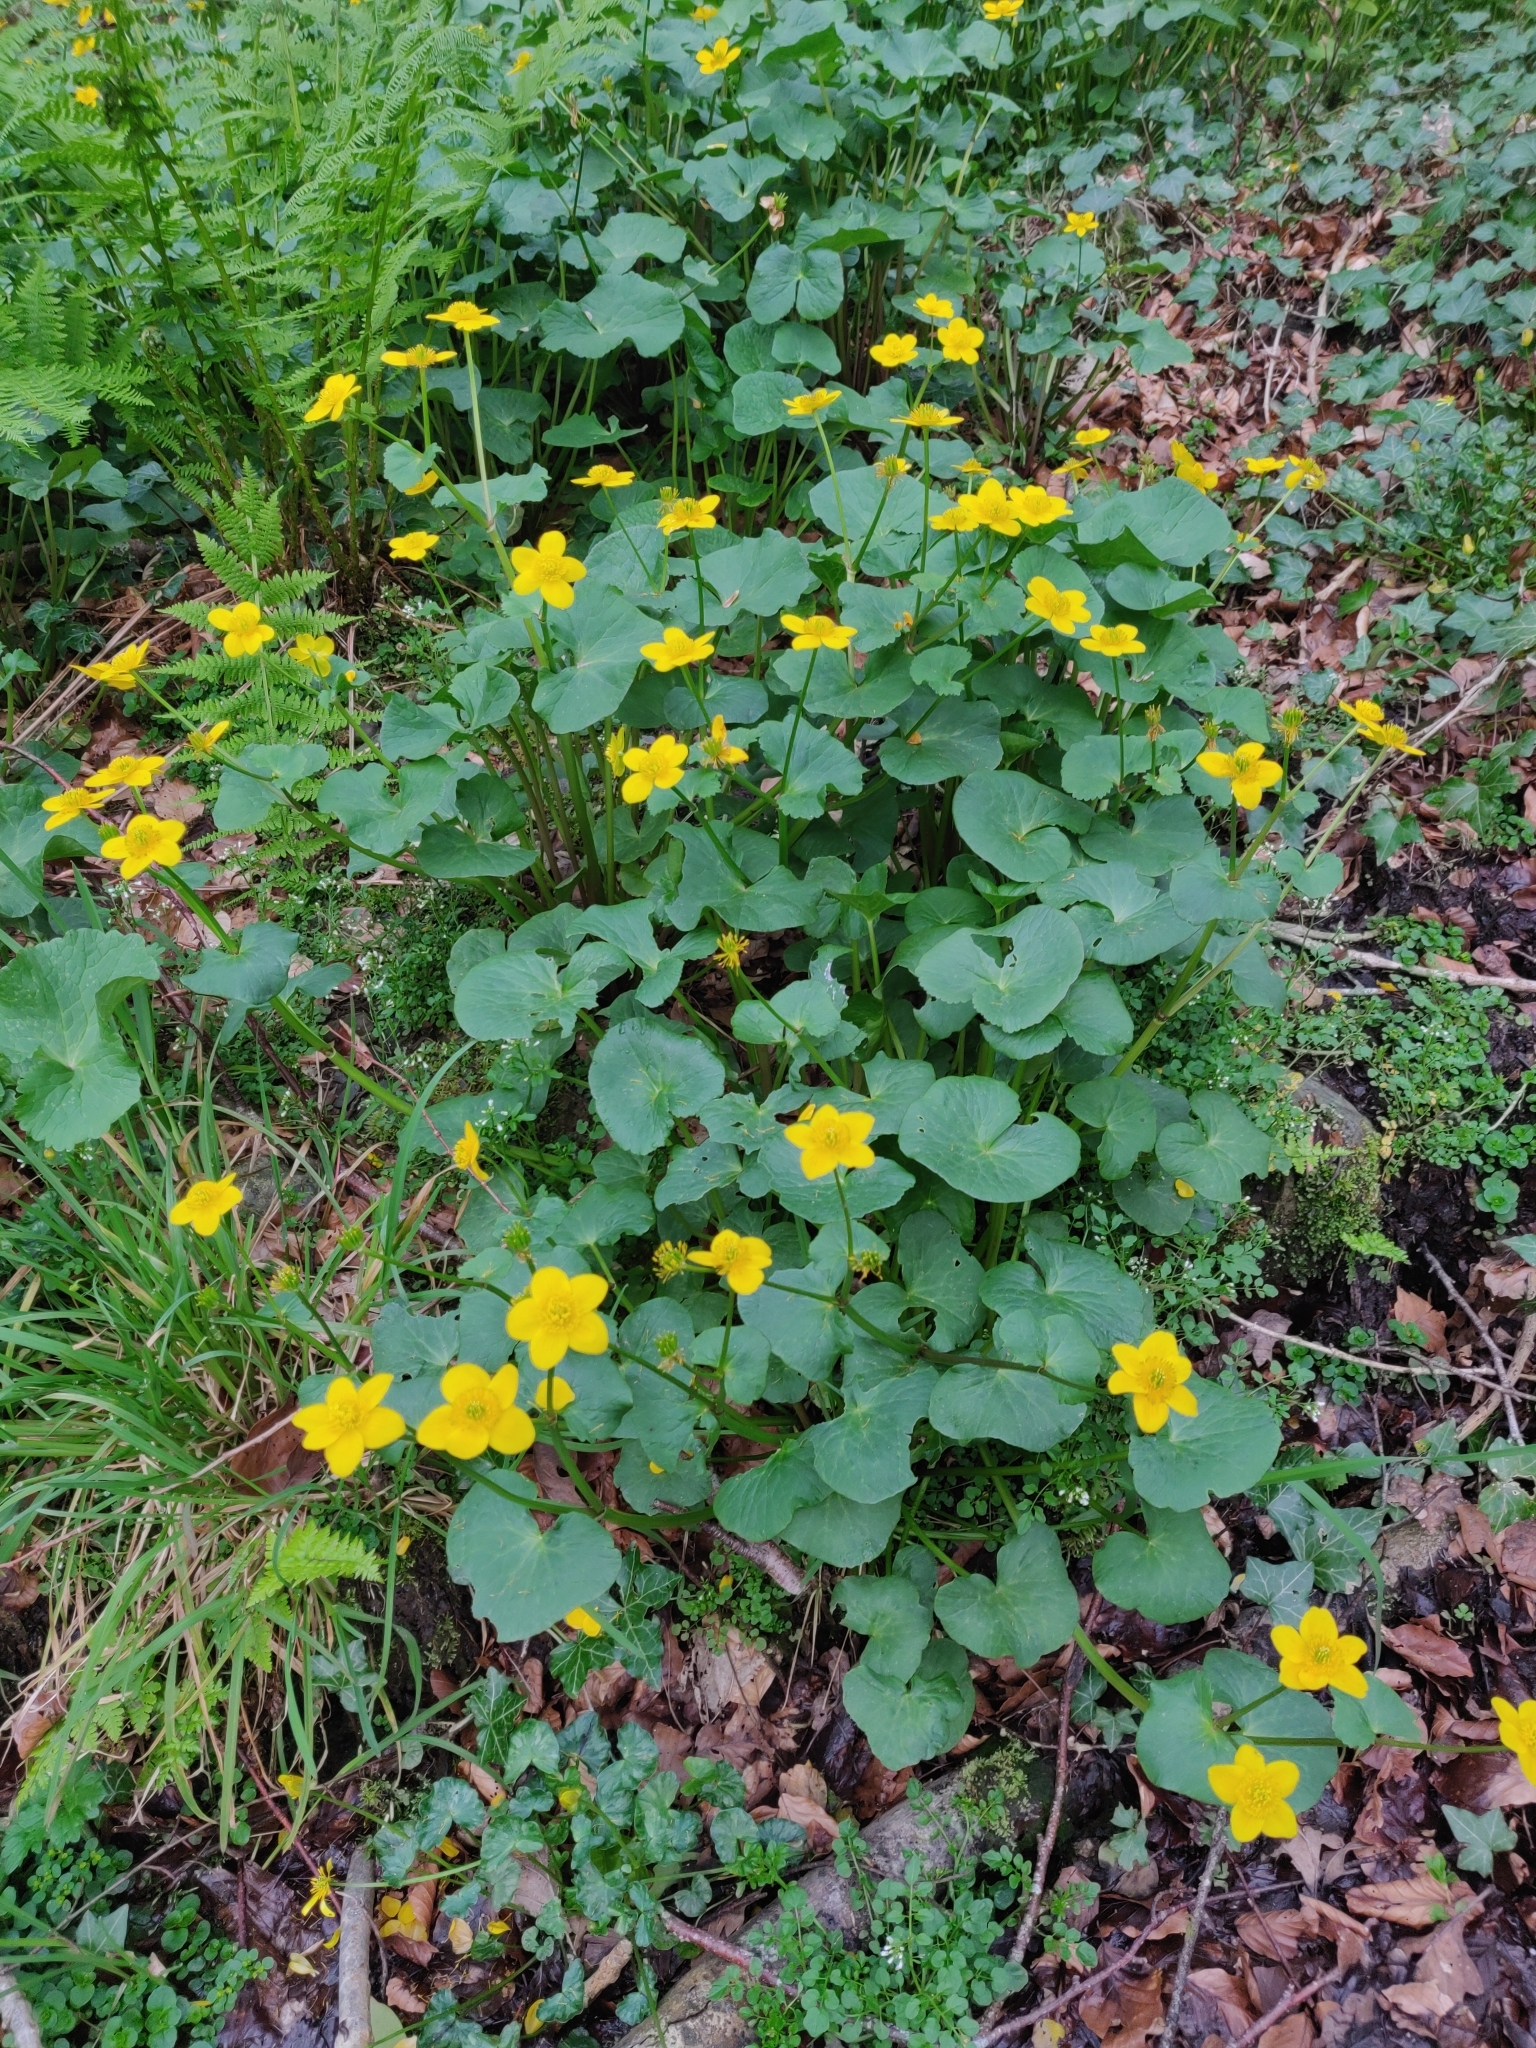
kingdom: Plantae
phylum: Tracheophyta
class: Magnoliopsida
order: Ranunculales
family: Ranunculaceae
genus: Caltha
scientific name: Caltha palustris
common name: Marsh marigold
